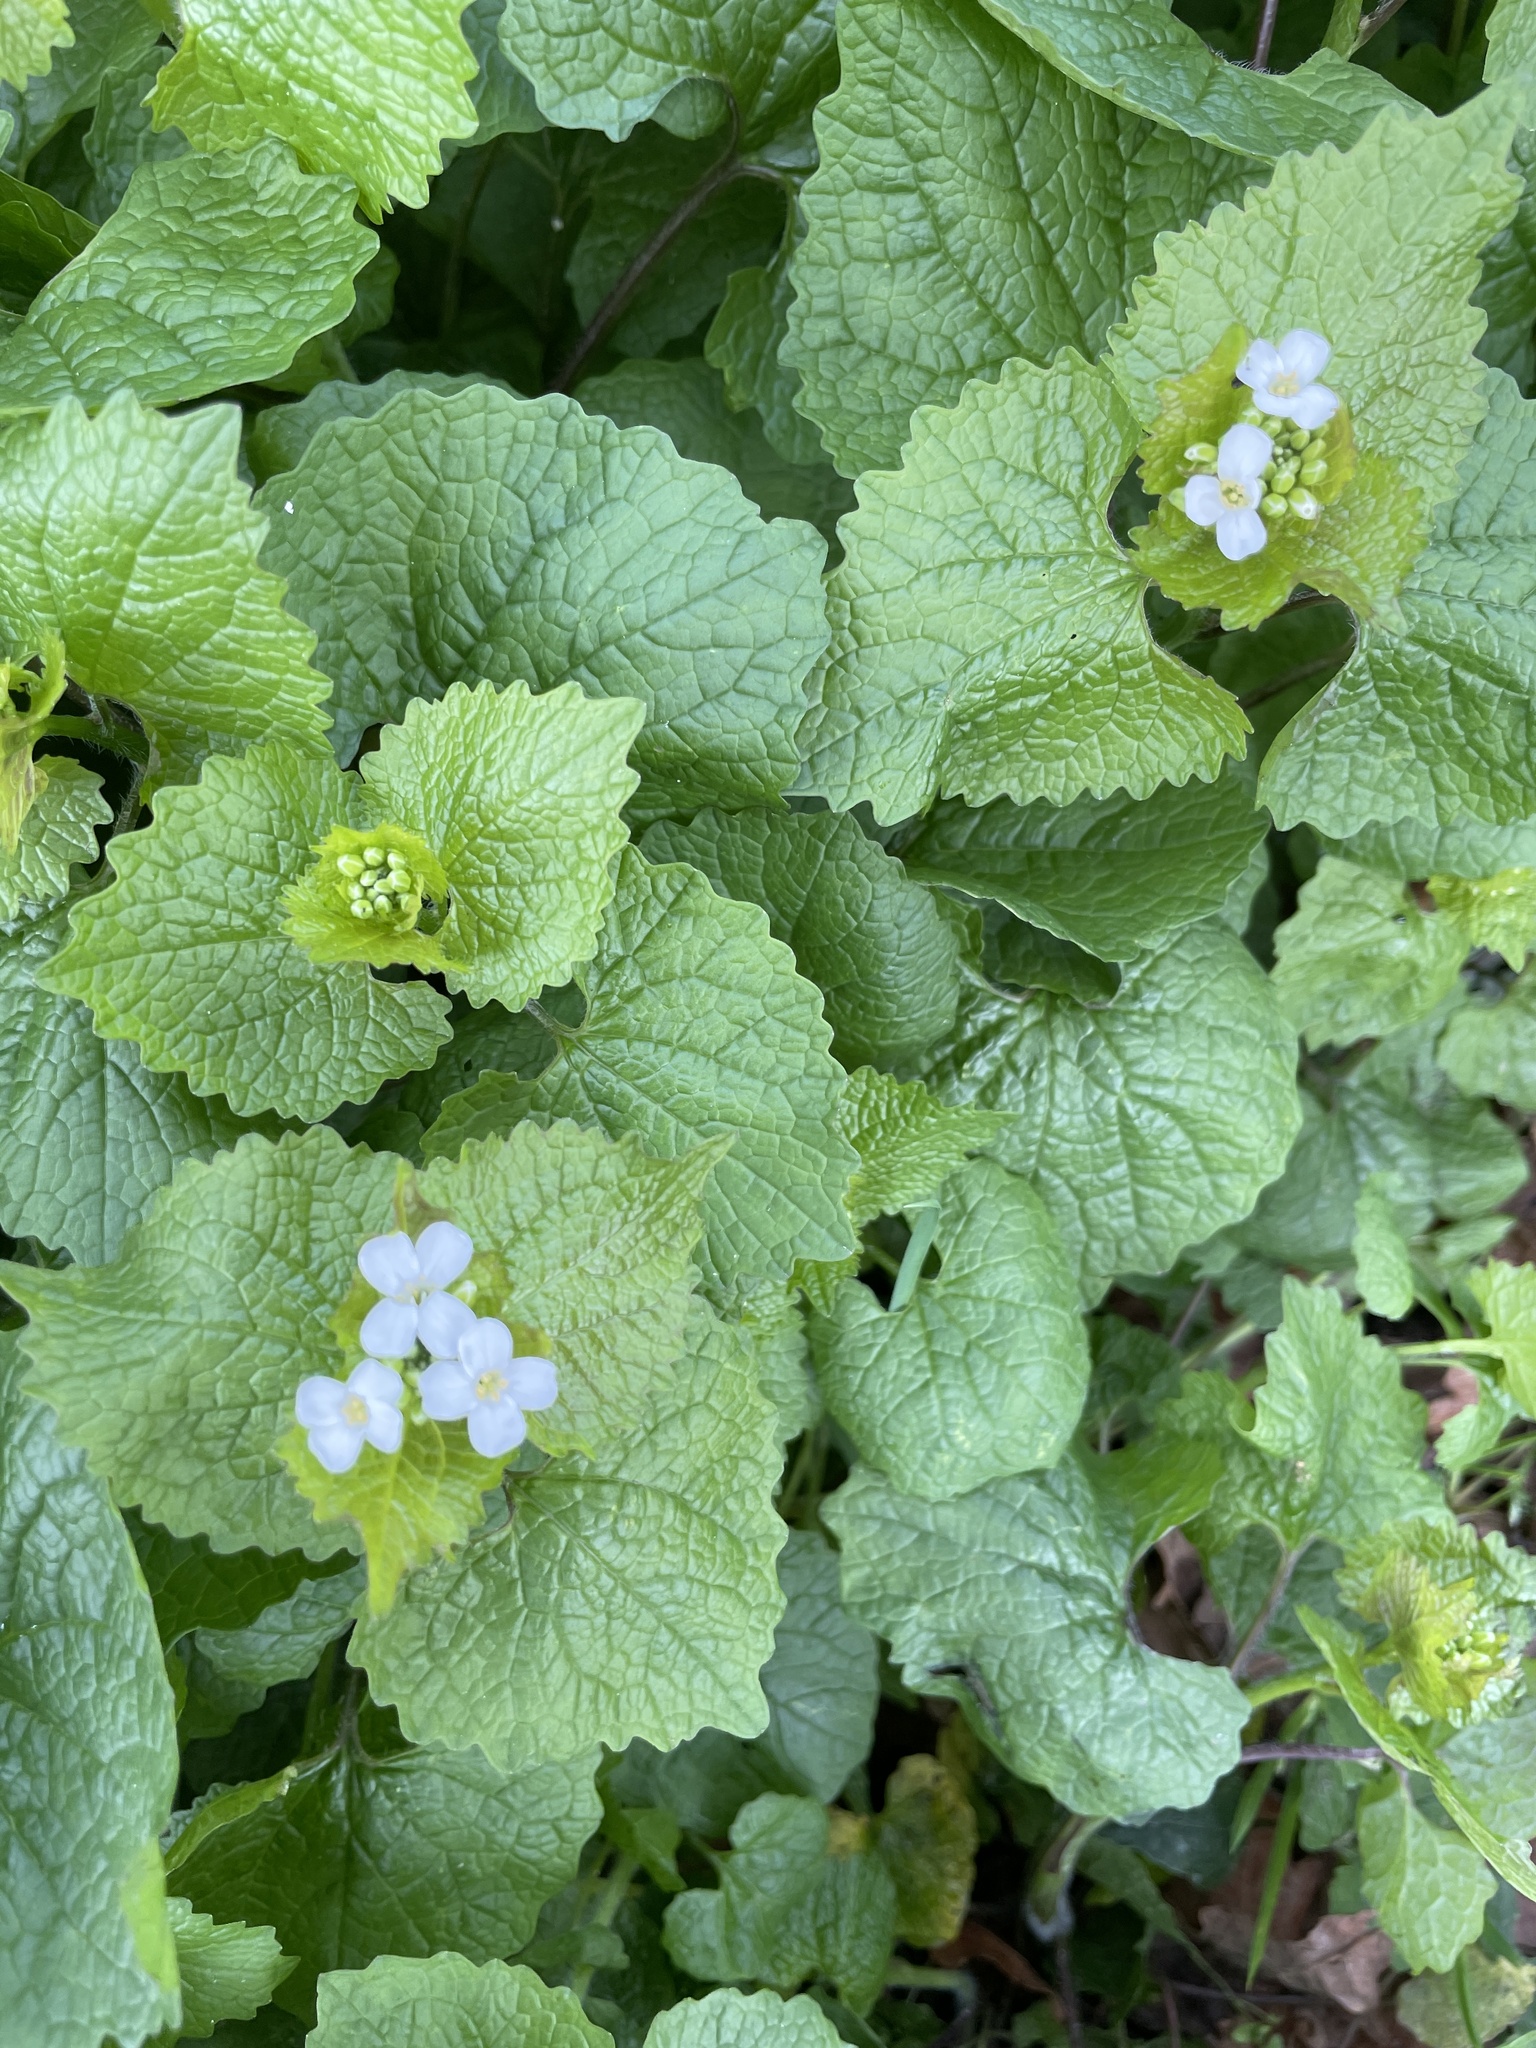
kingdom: Plantae
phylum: Tracheophyta
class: Magnoliopsida
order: Brassicales
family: Brassicaceae
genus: Alliaria
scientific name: Alliaria petiolata
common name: Garlic mustard
